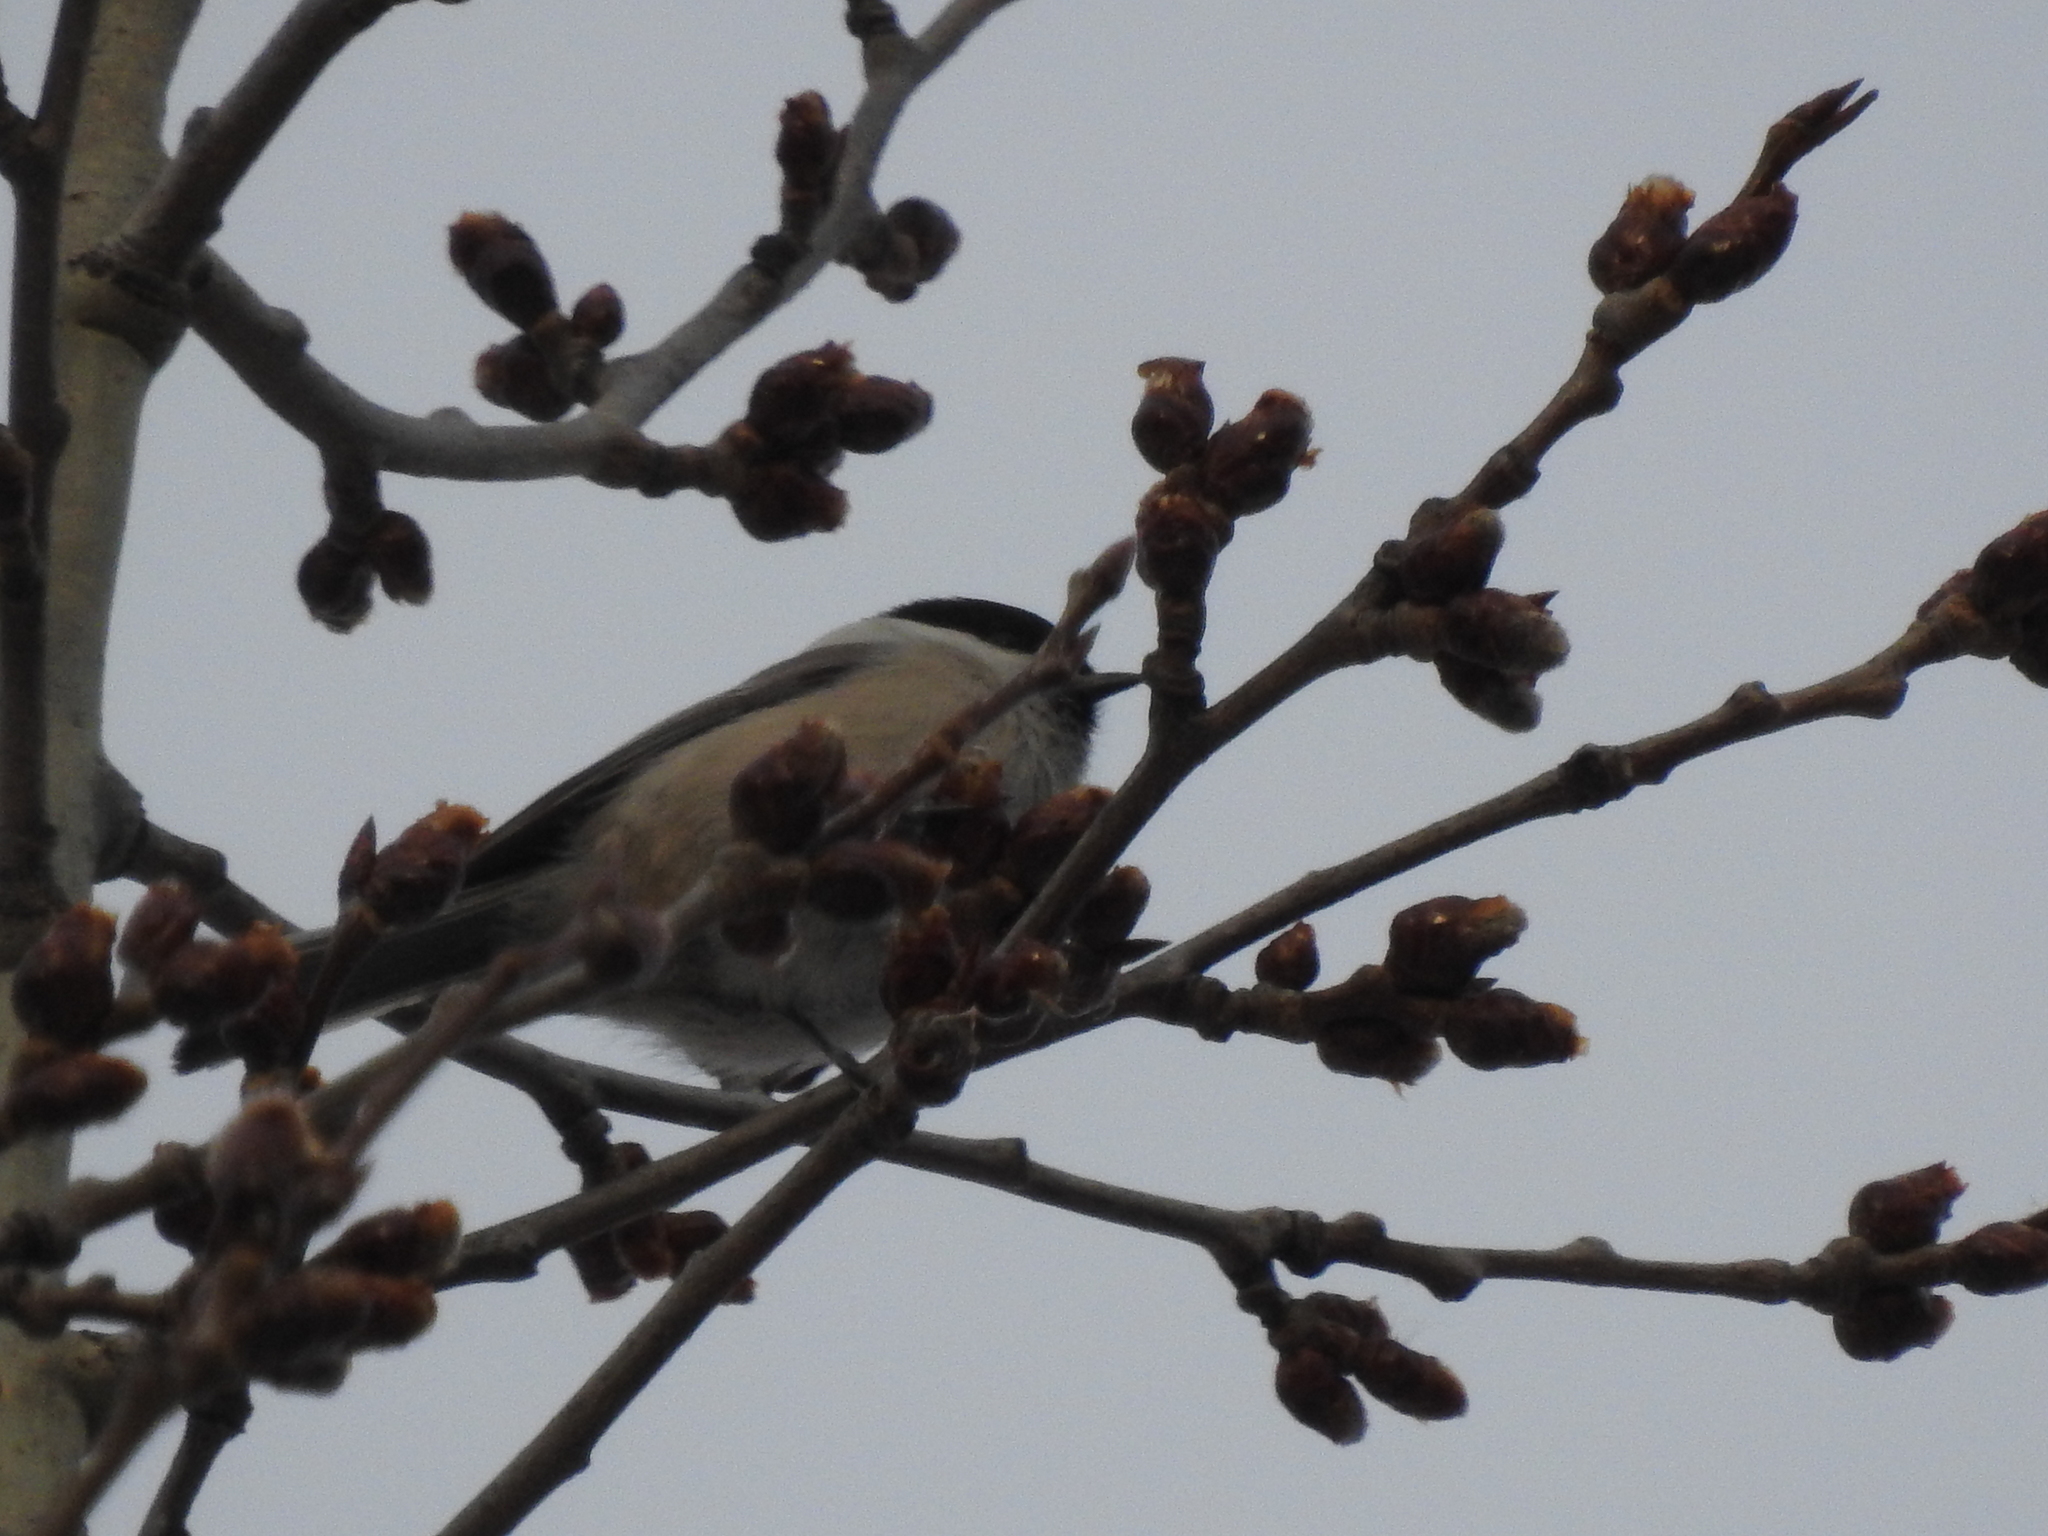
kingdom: Animalia
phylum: Chordata
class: Aves
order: Passeriformes
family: Paridae
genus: Poecile
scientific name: Poecile montanus
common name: Willow tit
